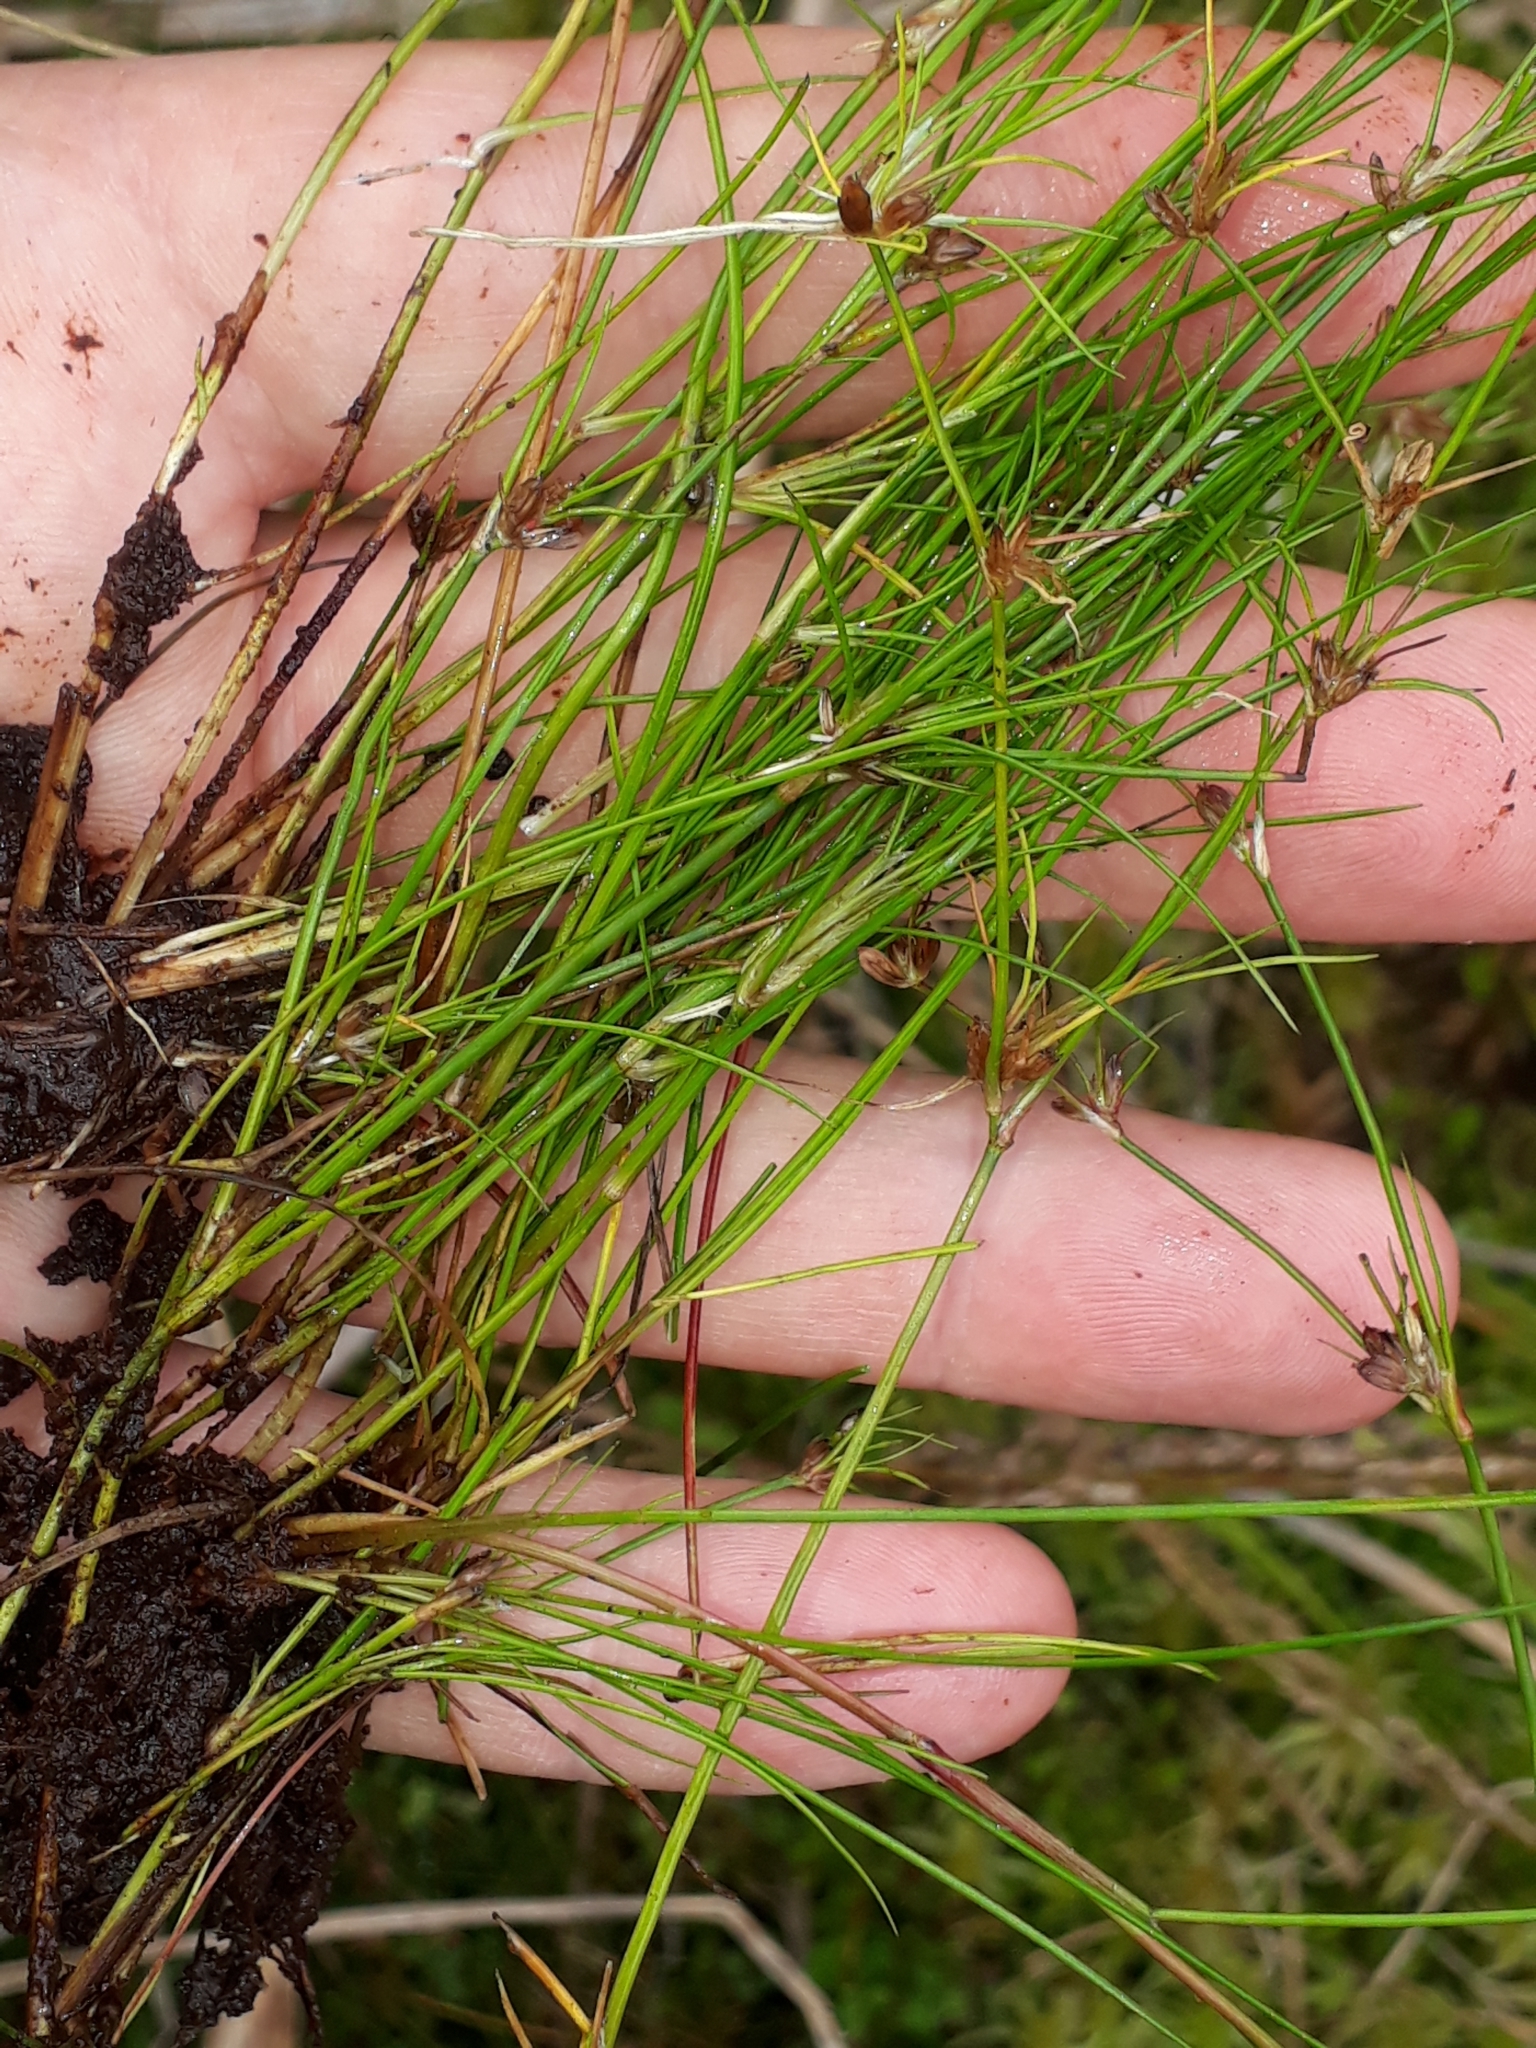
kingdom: Plantae
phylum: Tracheophyta
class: Liliopsida
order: Poales
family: Juncaceae
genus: Juncus
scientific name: Juncus bulbosus
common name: Bulbous rush
